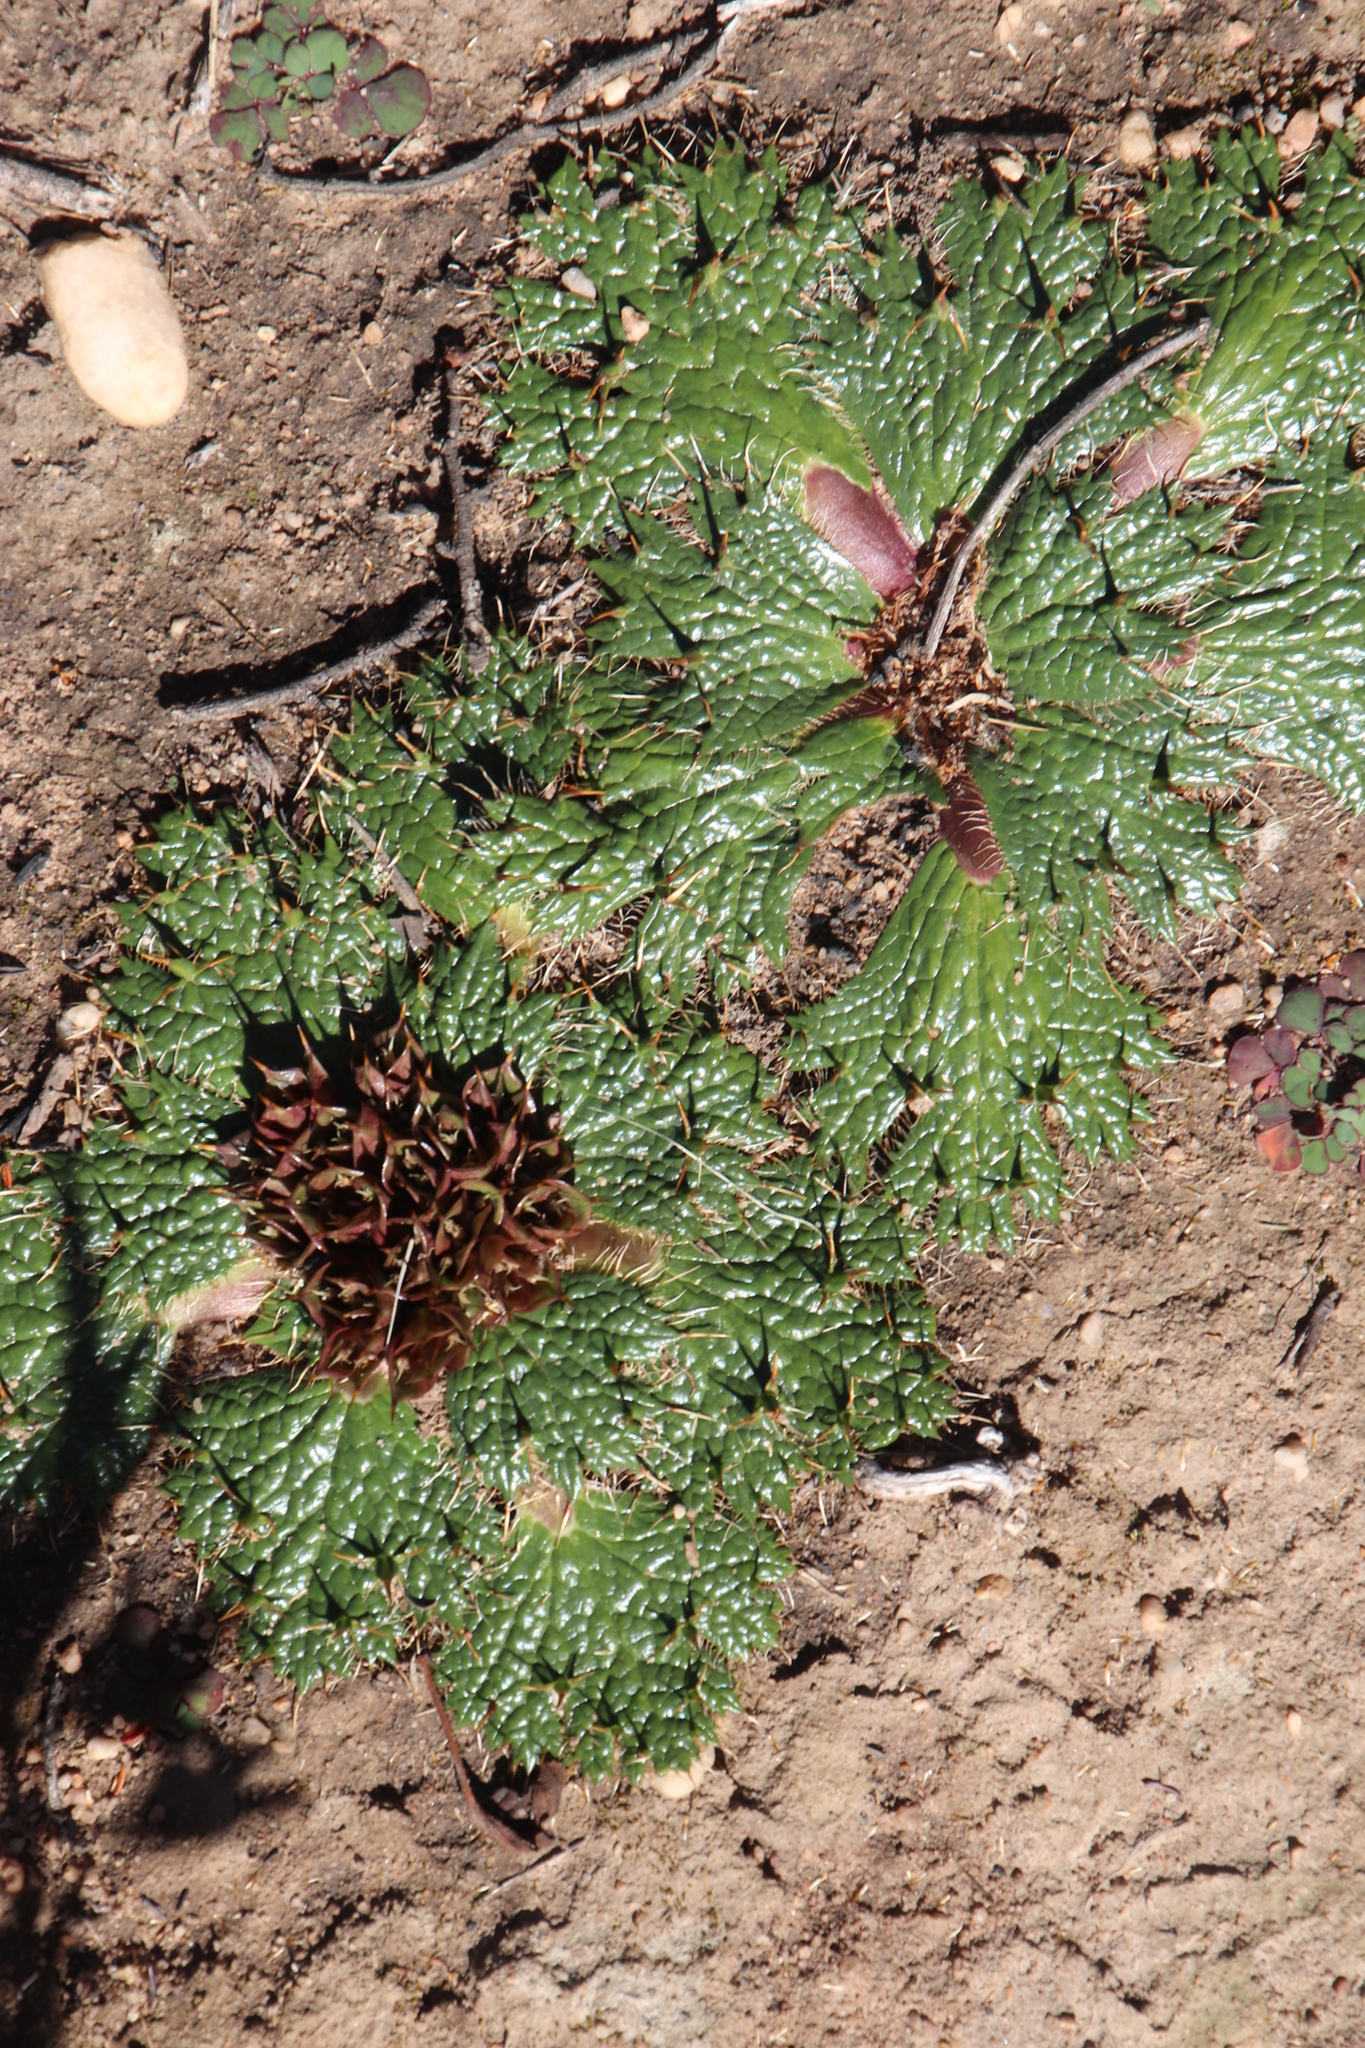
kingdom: Plantae
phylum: Tracheophyta
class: Magnoliopsida
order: Apiales
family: Apiaceae
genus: Arctopus
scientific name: Arctopus echinatus
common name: Platdoring
